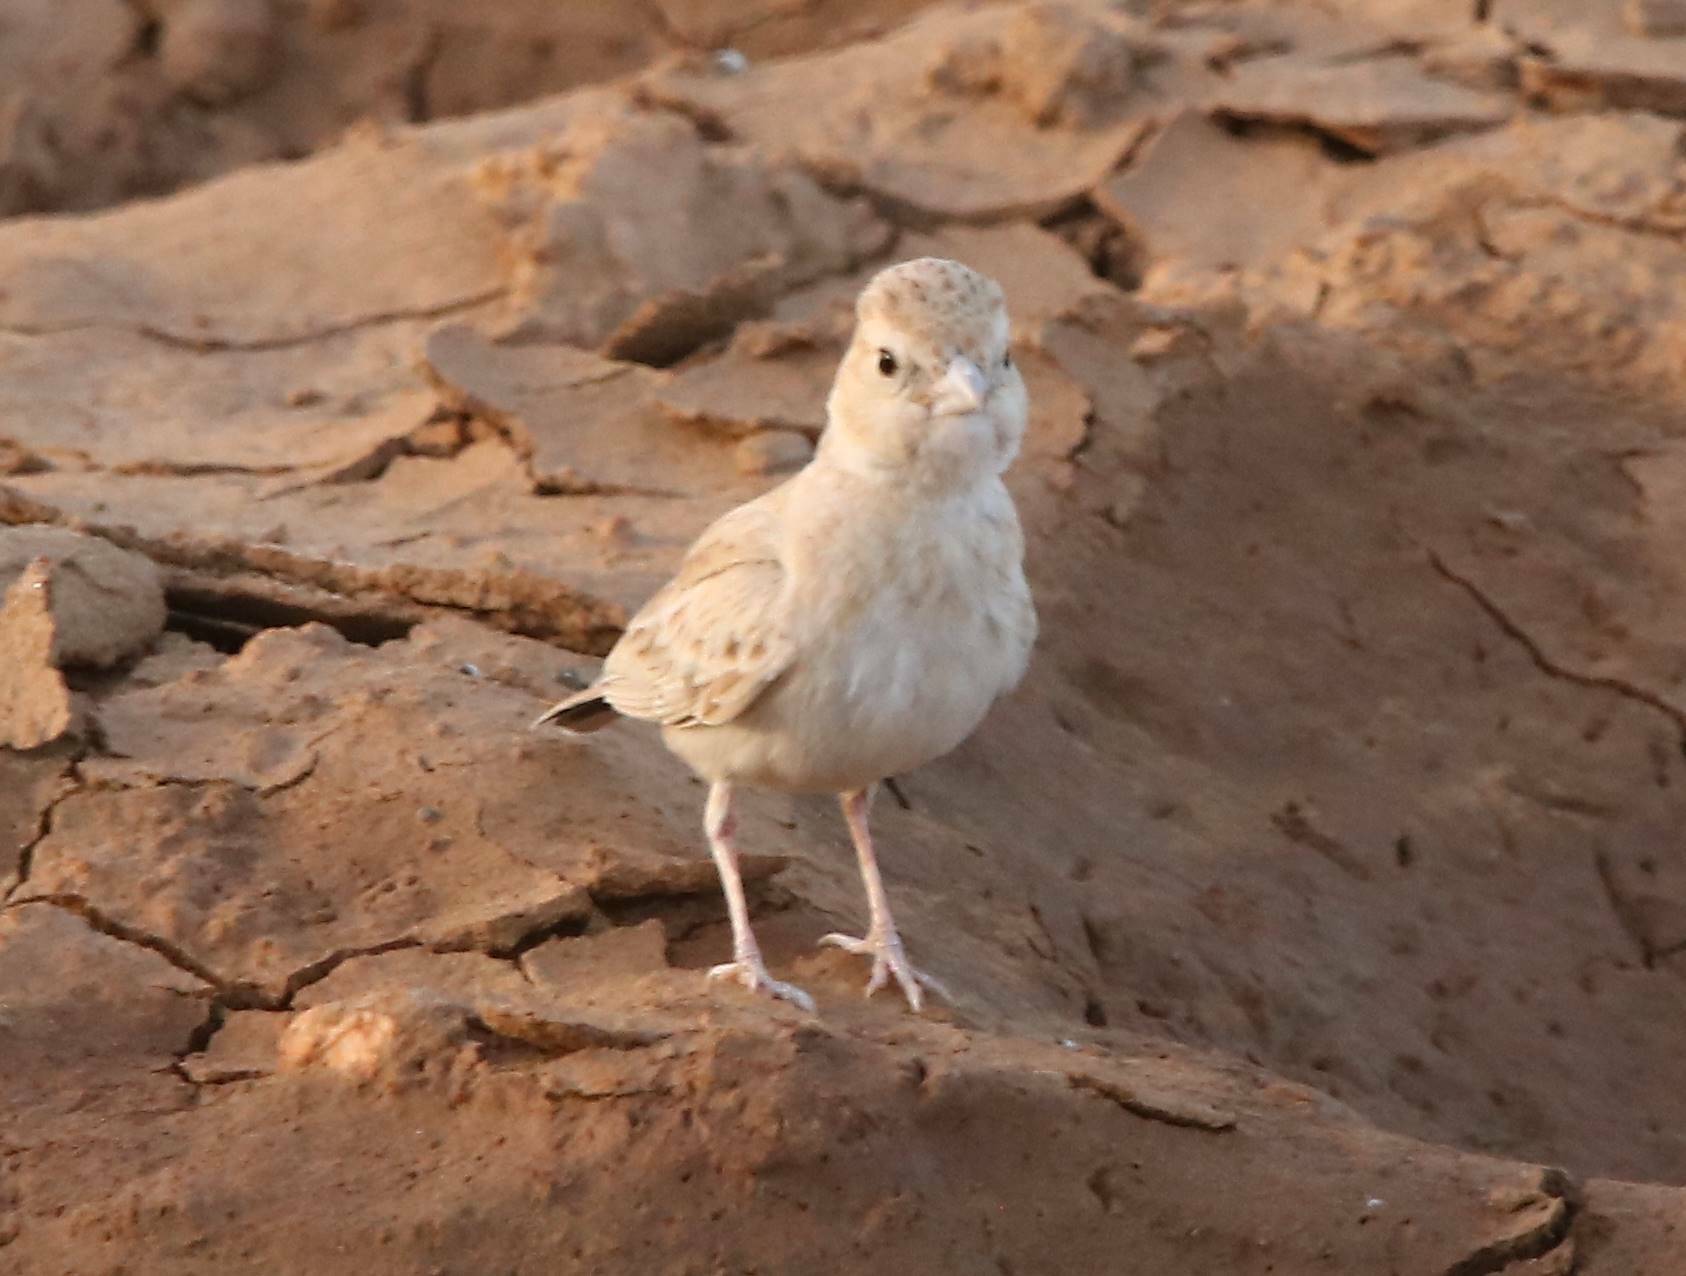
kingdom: Animalia
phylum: Chordata
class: Aves
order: Passeriformes
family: Alaudidae
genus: Eremopterix
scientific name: Eremopterix nigriceps
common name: Black-crowned sparrow-lark
